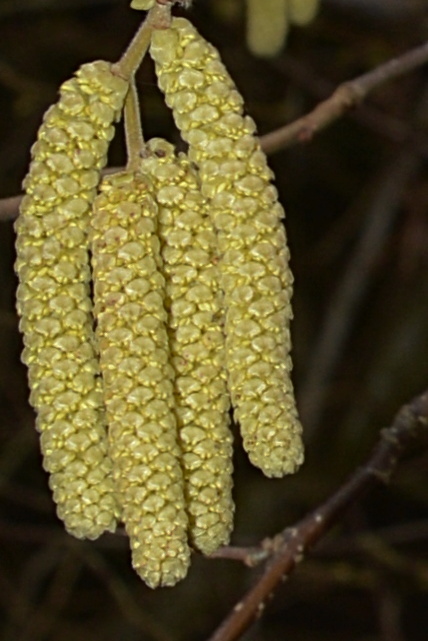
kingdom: Plantae
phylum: Tracheophyta
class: Magnoliopsida
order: Fagales
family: Betulaceae
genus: Corylus
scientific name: Corylus avellana
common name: European hazel
